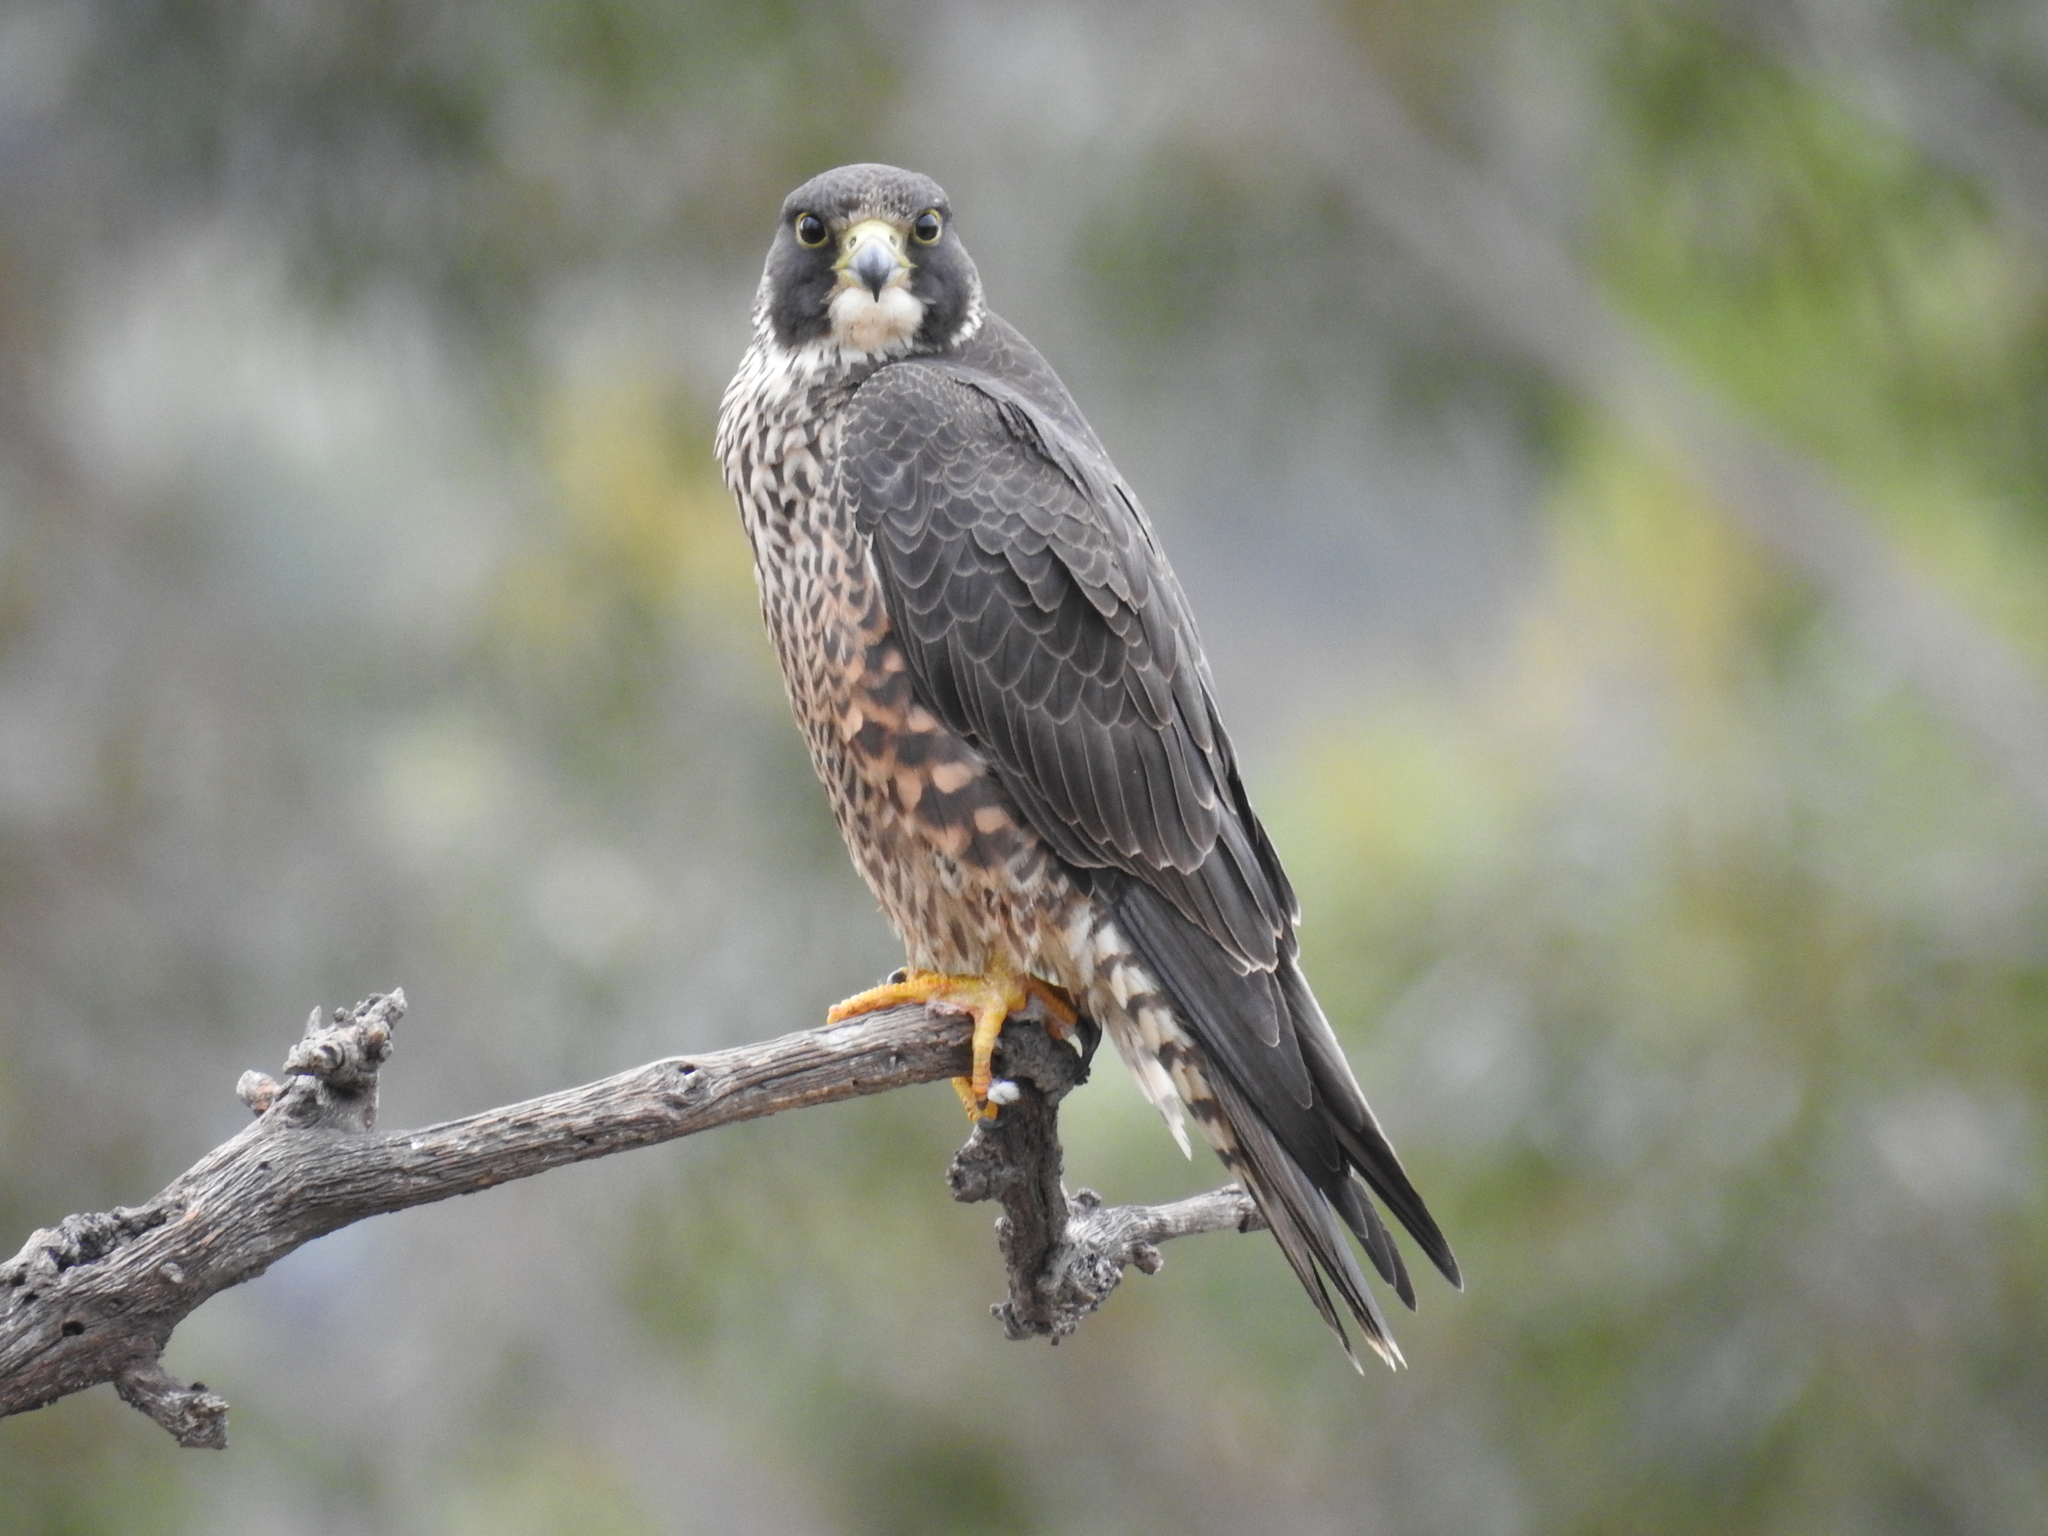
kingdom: Animalia
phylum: Chordata
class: Aves
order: Falconiformes
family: Falconidae
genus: Falco
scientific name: Falco peregrinus
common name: Peregrine falcon
